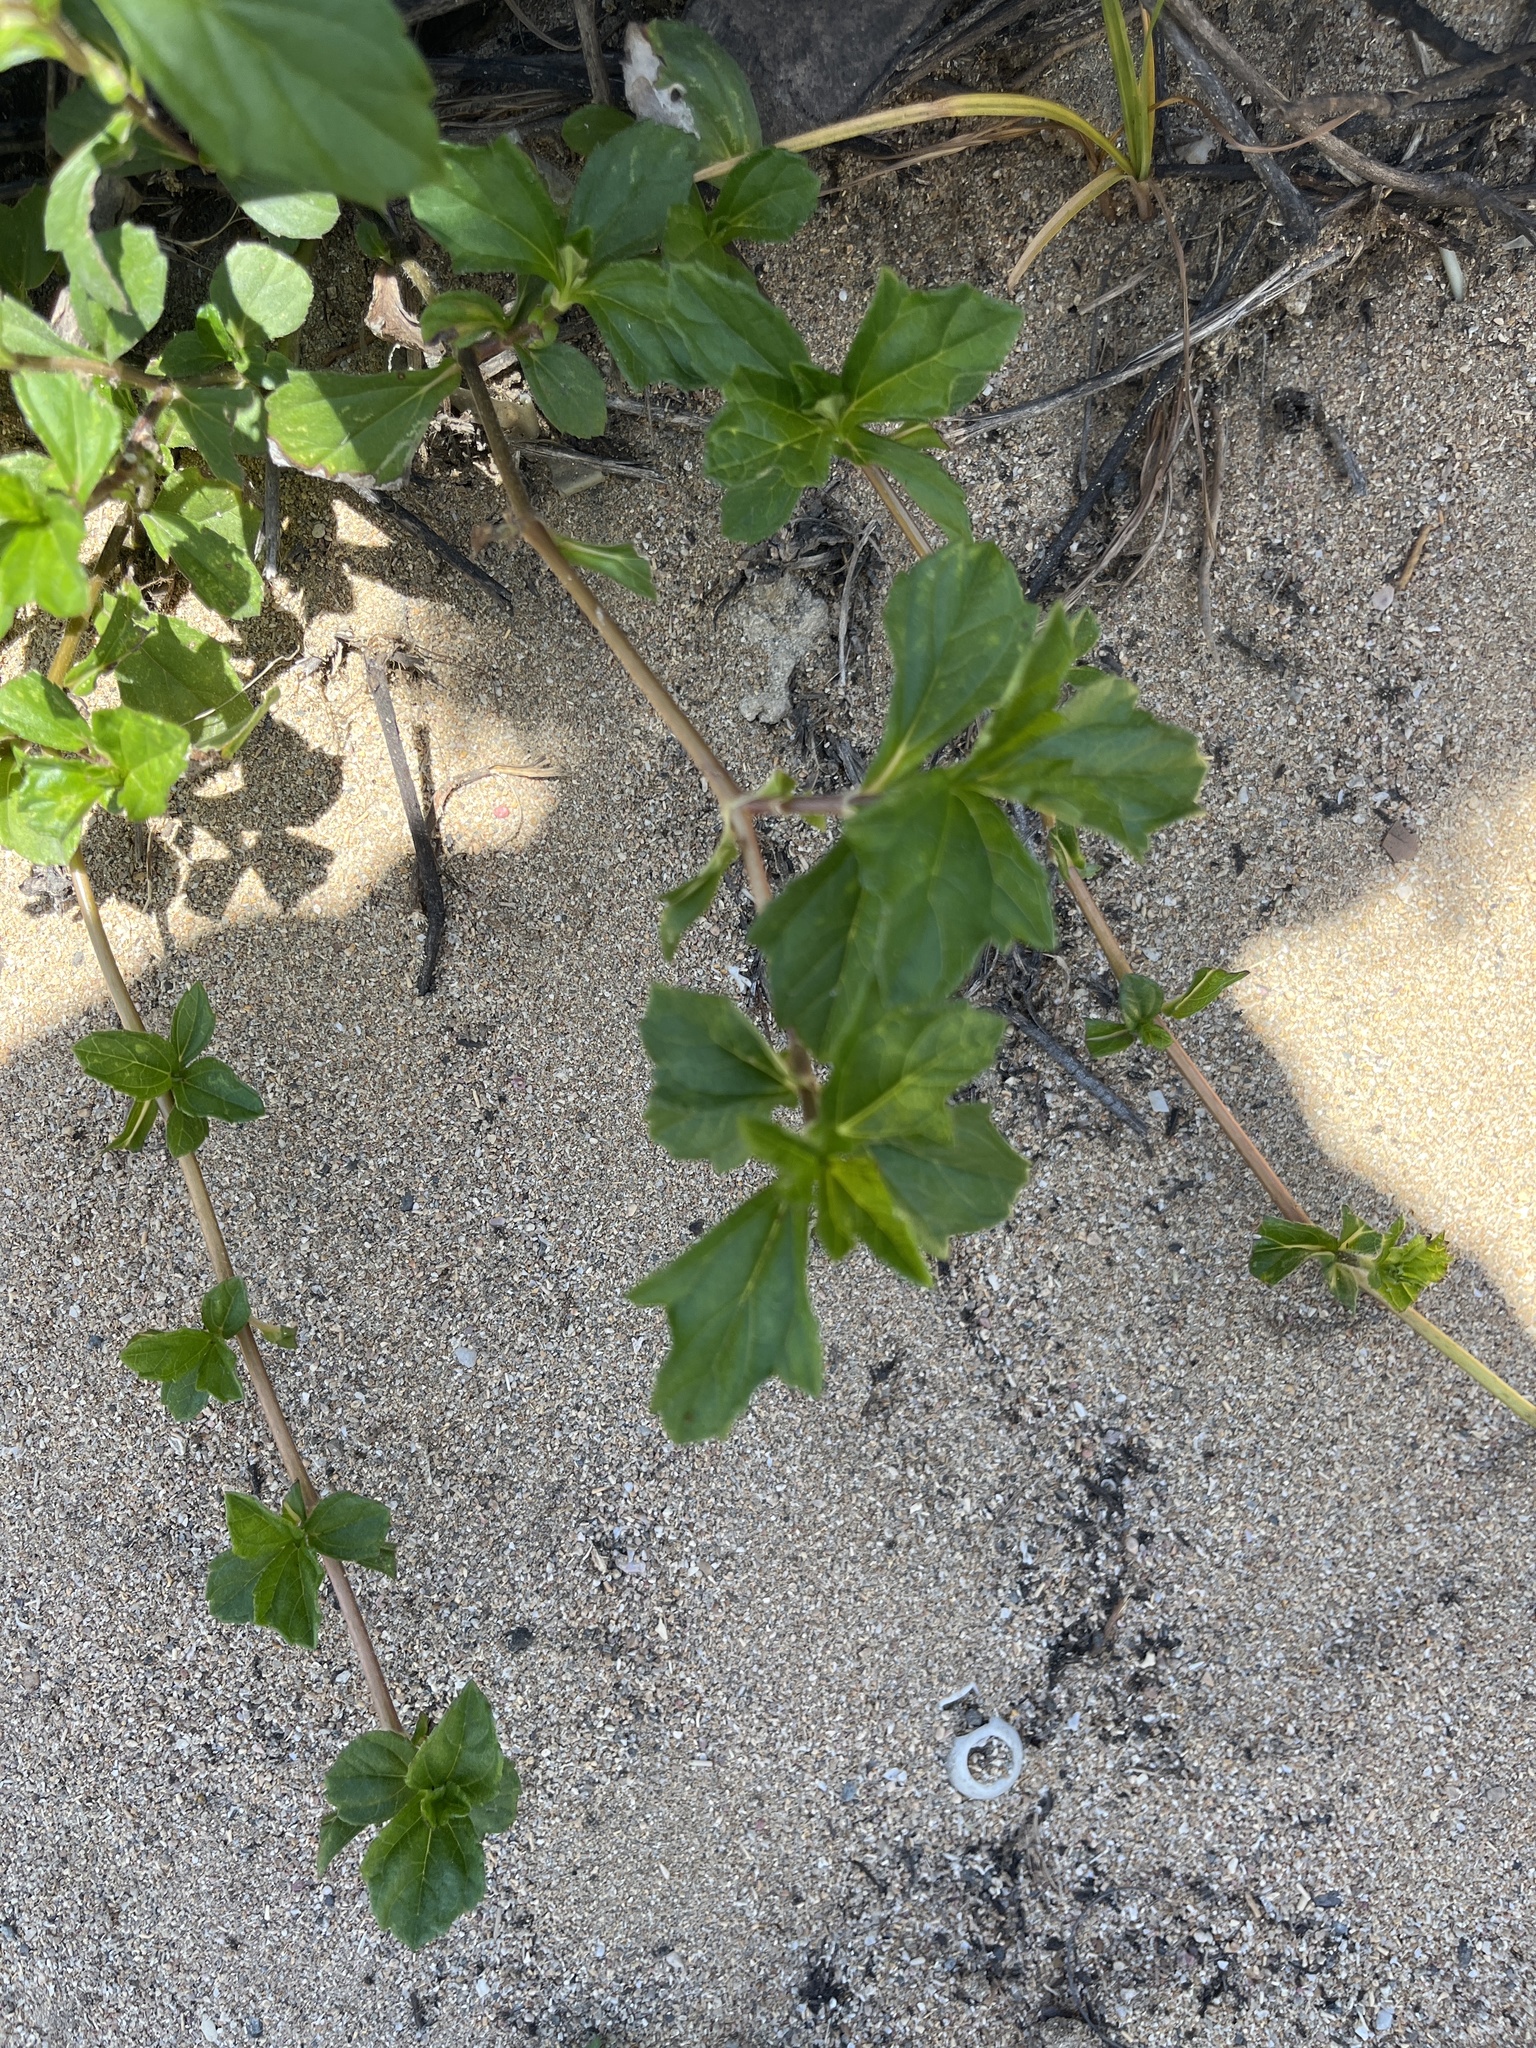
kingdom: Plantae
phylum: Tracheophyta
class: Magnoliopsida
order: Asterales
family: Asteraceae
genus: Sphagneticola
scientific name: Sphagneticola trilobata
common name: Bay biscayne creeping-oxeye
